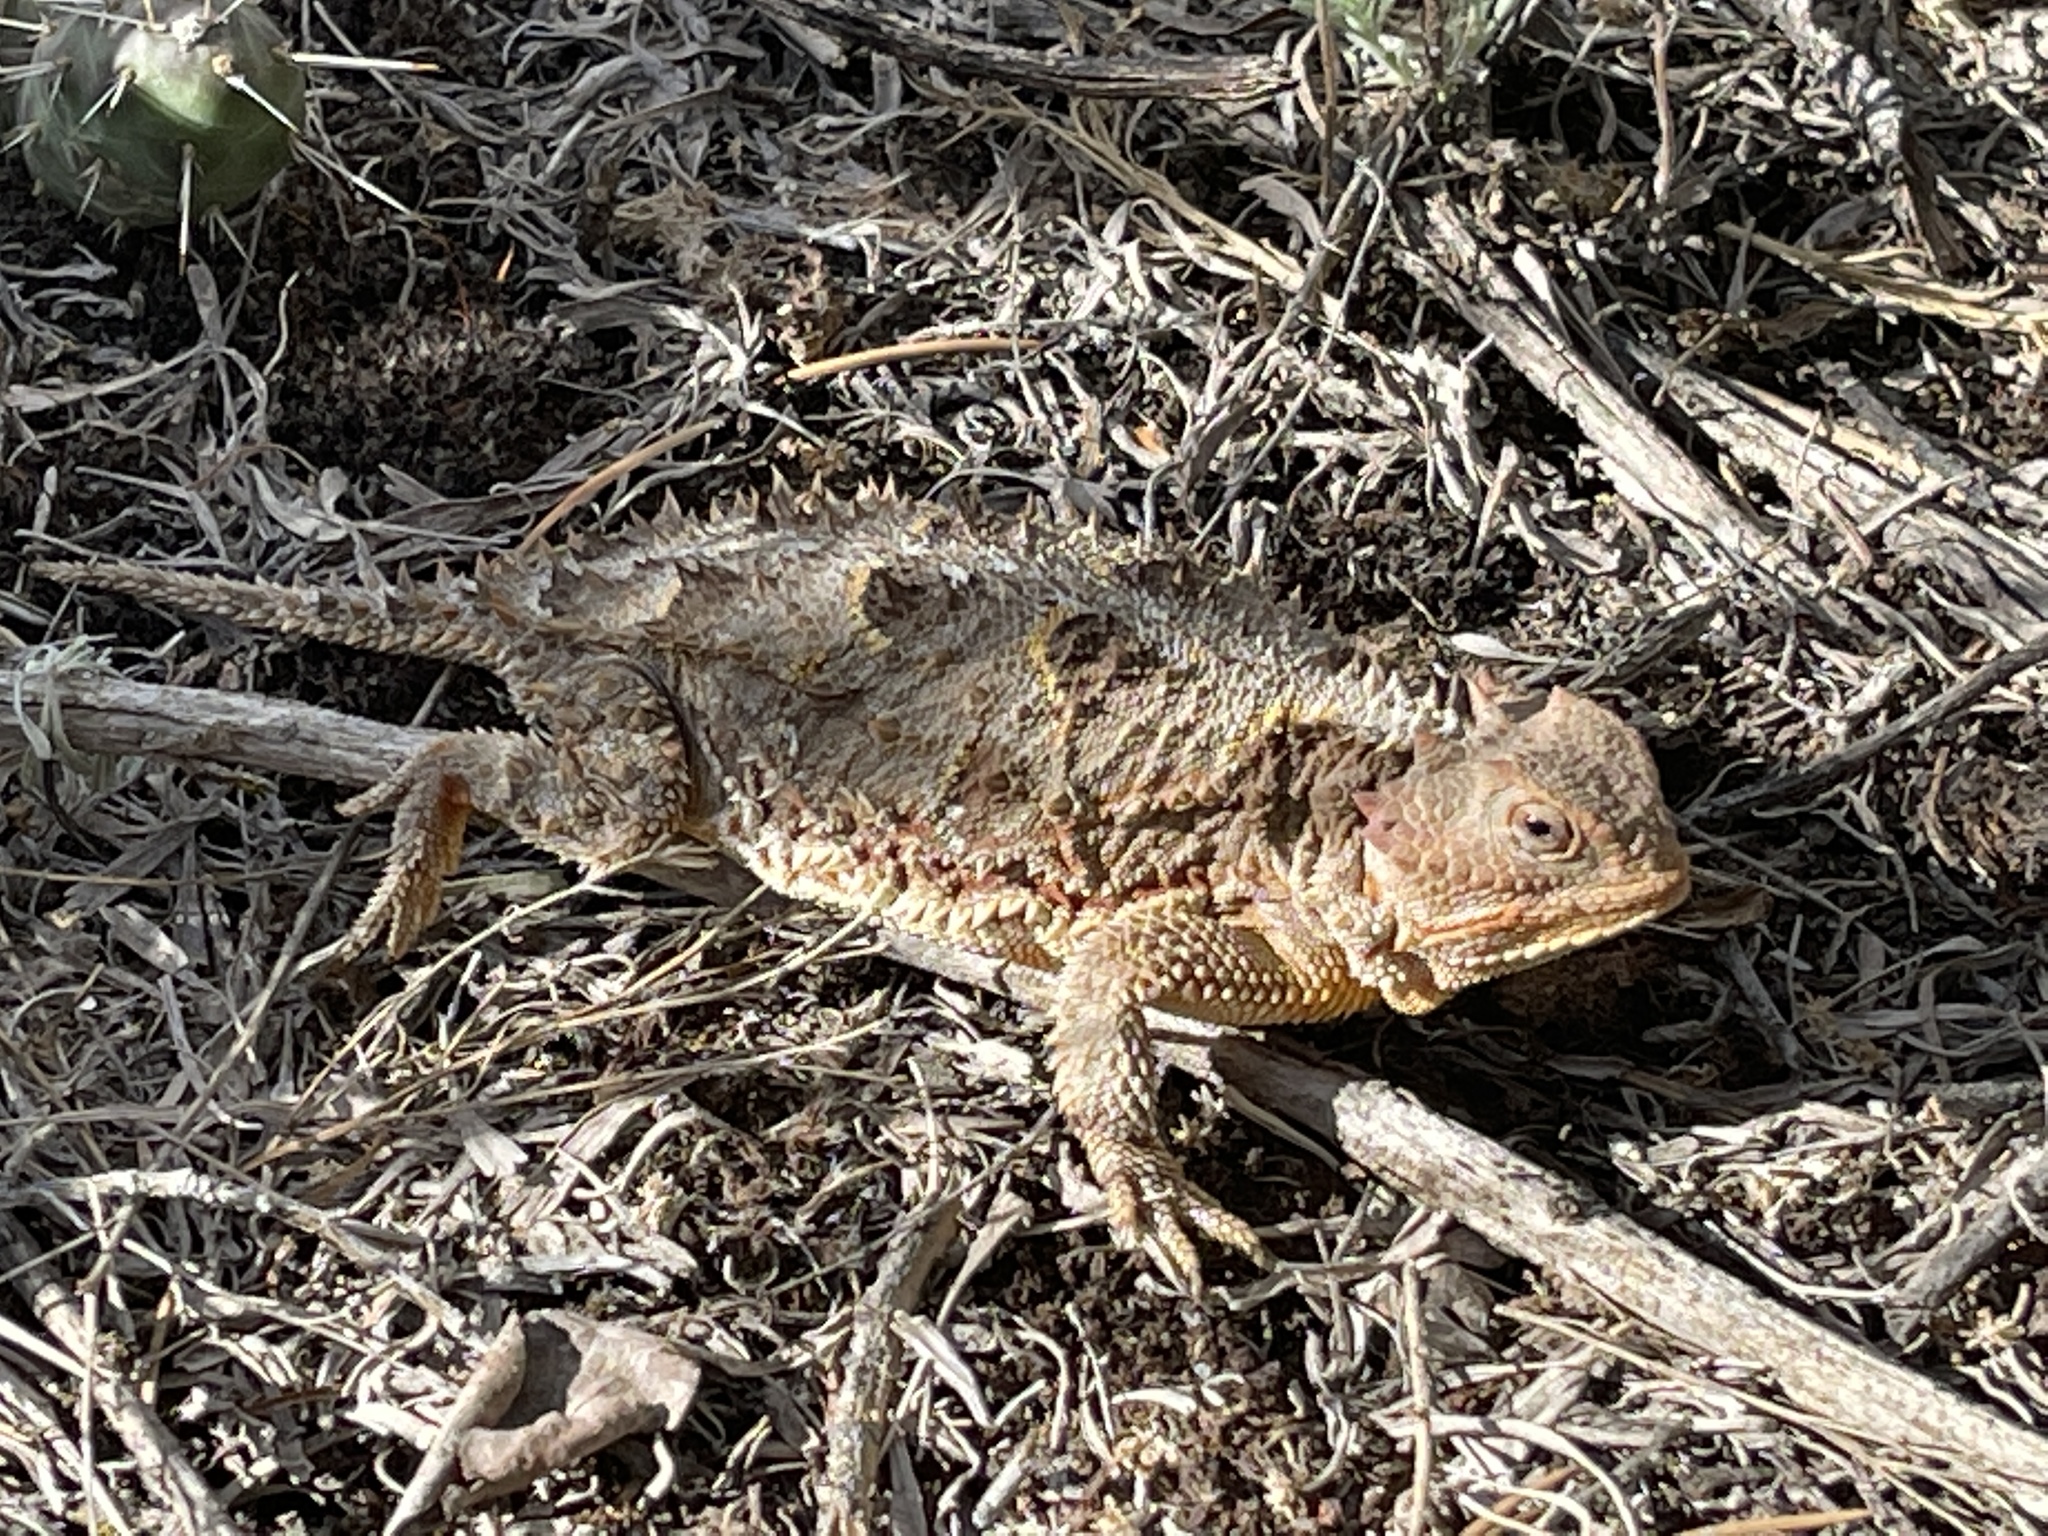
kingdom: Animalia
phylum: Chordata
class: Squamata
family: Phrynosomatidae
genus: Phrynosoma
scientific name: Phrynosoma hernandesi
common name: Greater short-horned lizard
